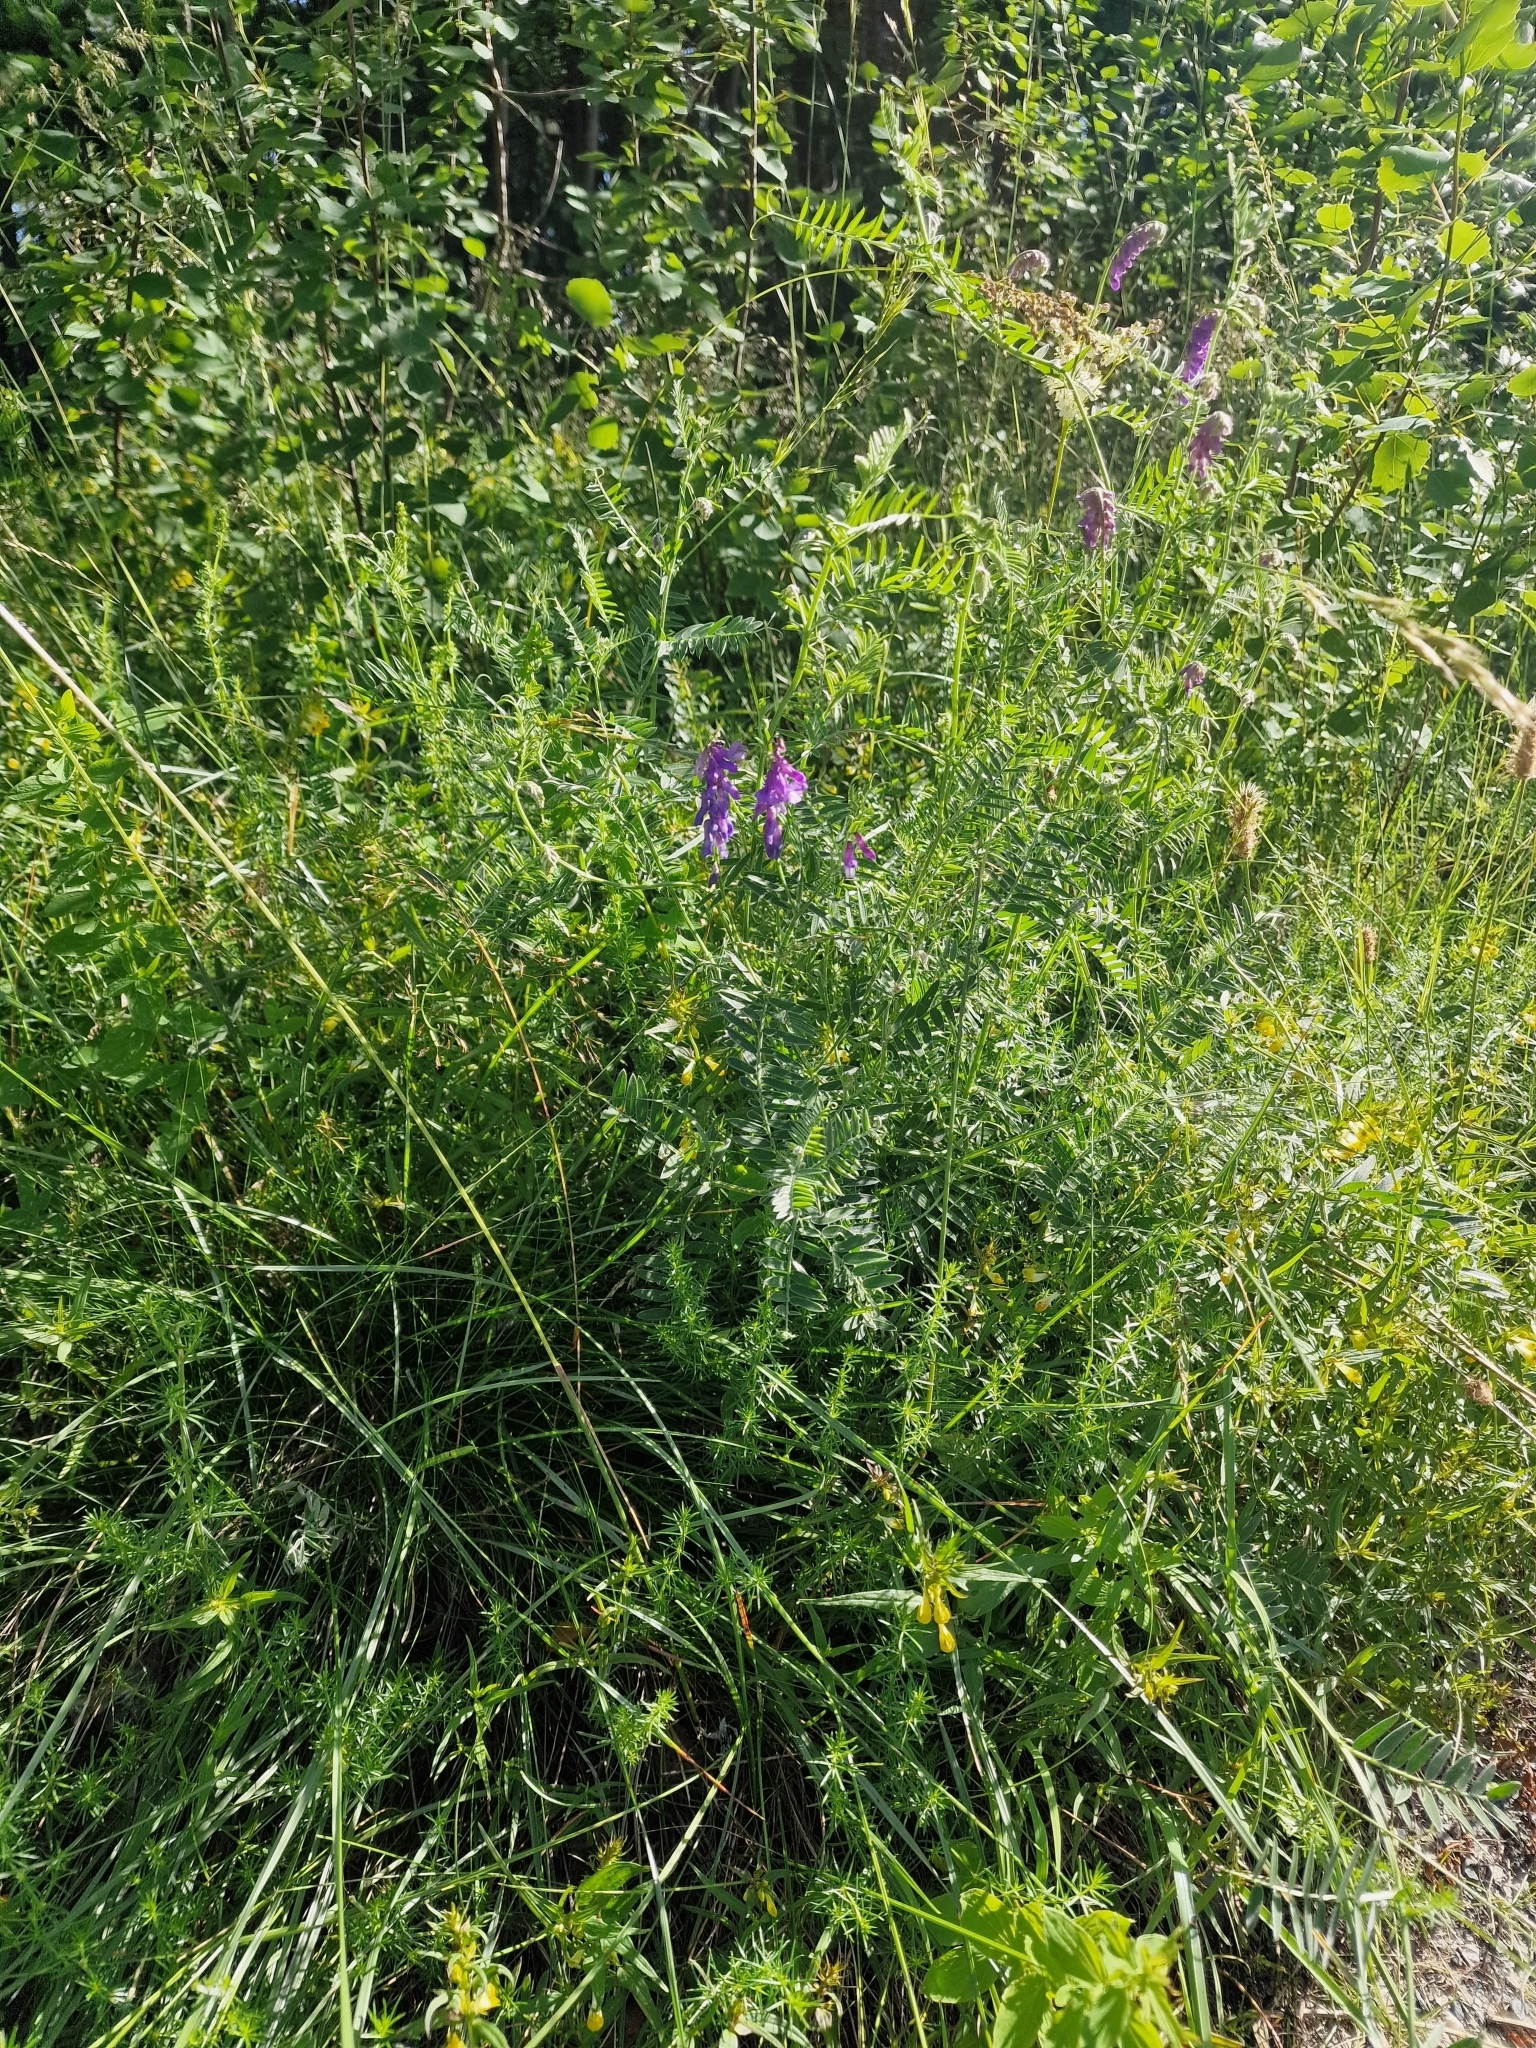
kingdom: Plantae
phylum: Tracheophyta
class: Magnoliopsida
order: Fabales
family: Fabaceae
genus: Vicia
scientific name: Vicia cracca
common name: Bird vetch
